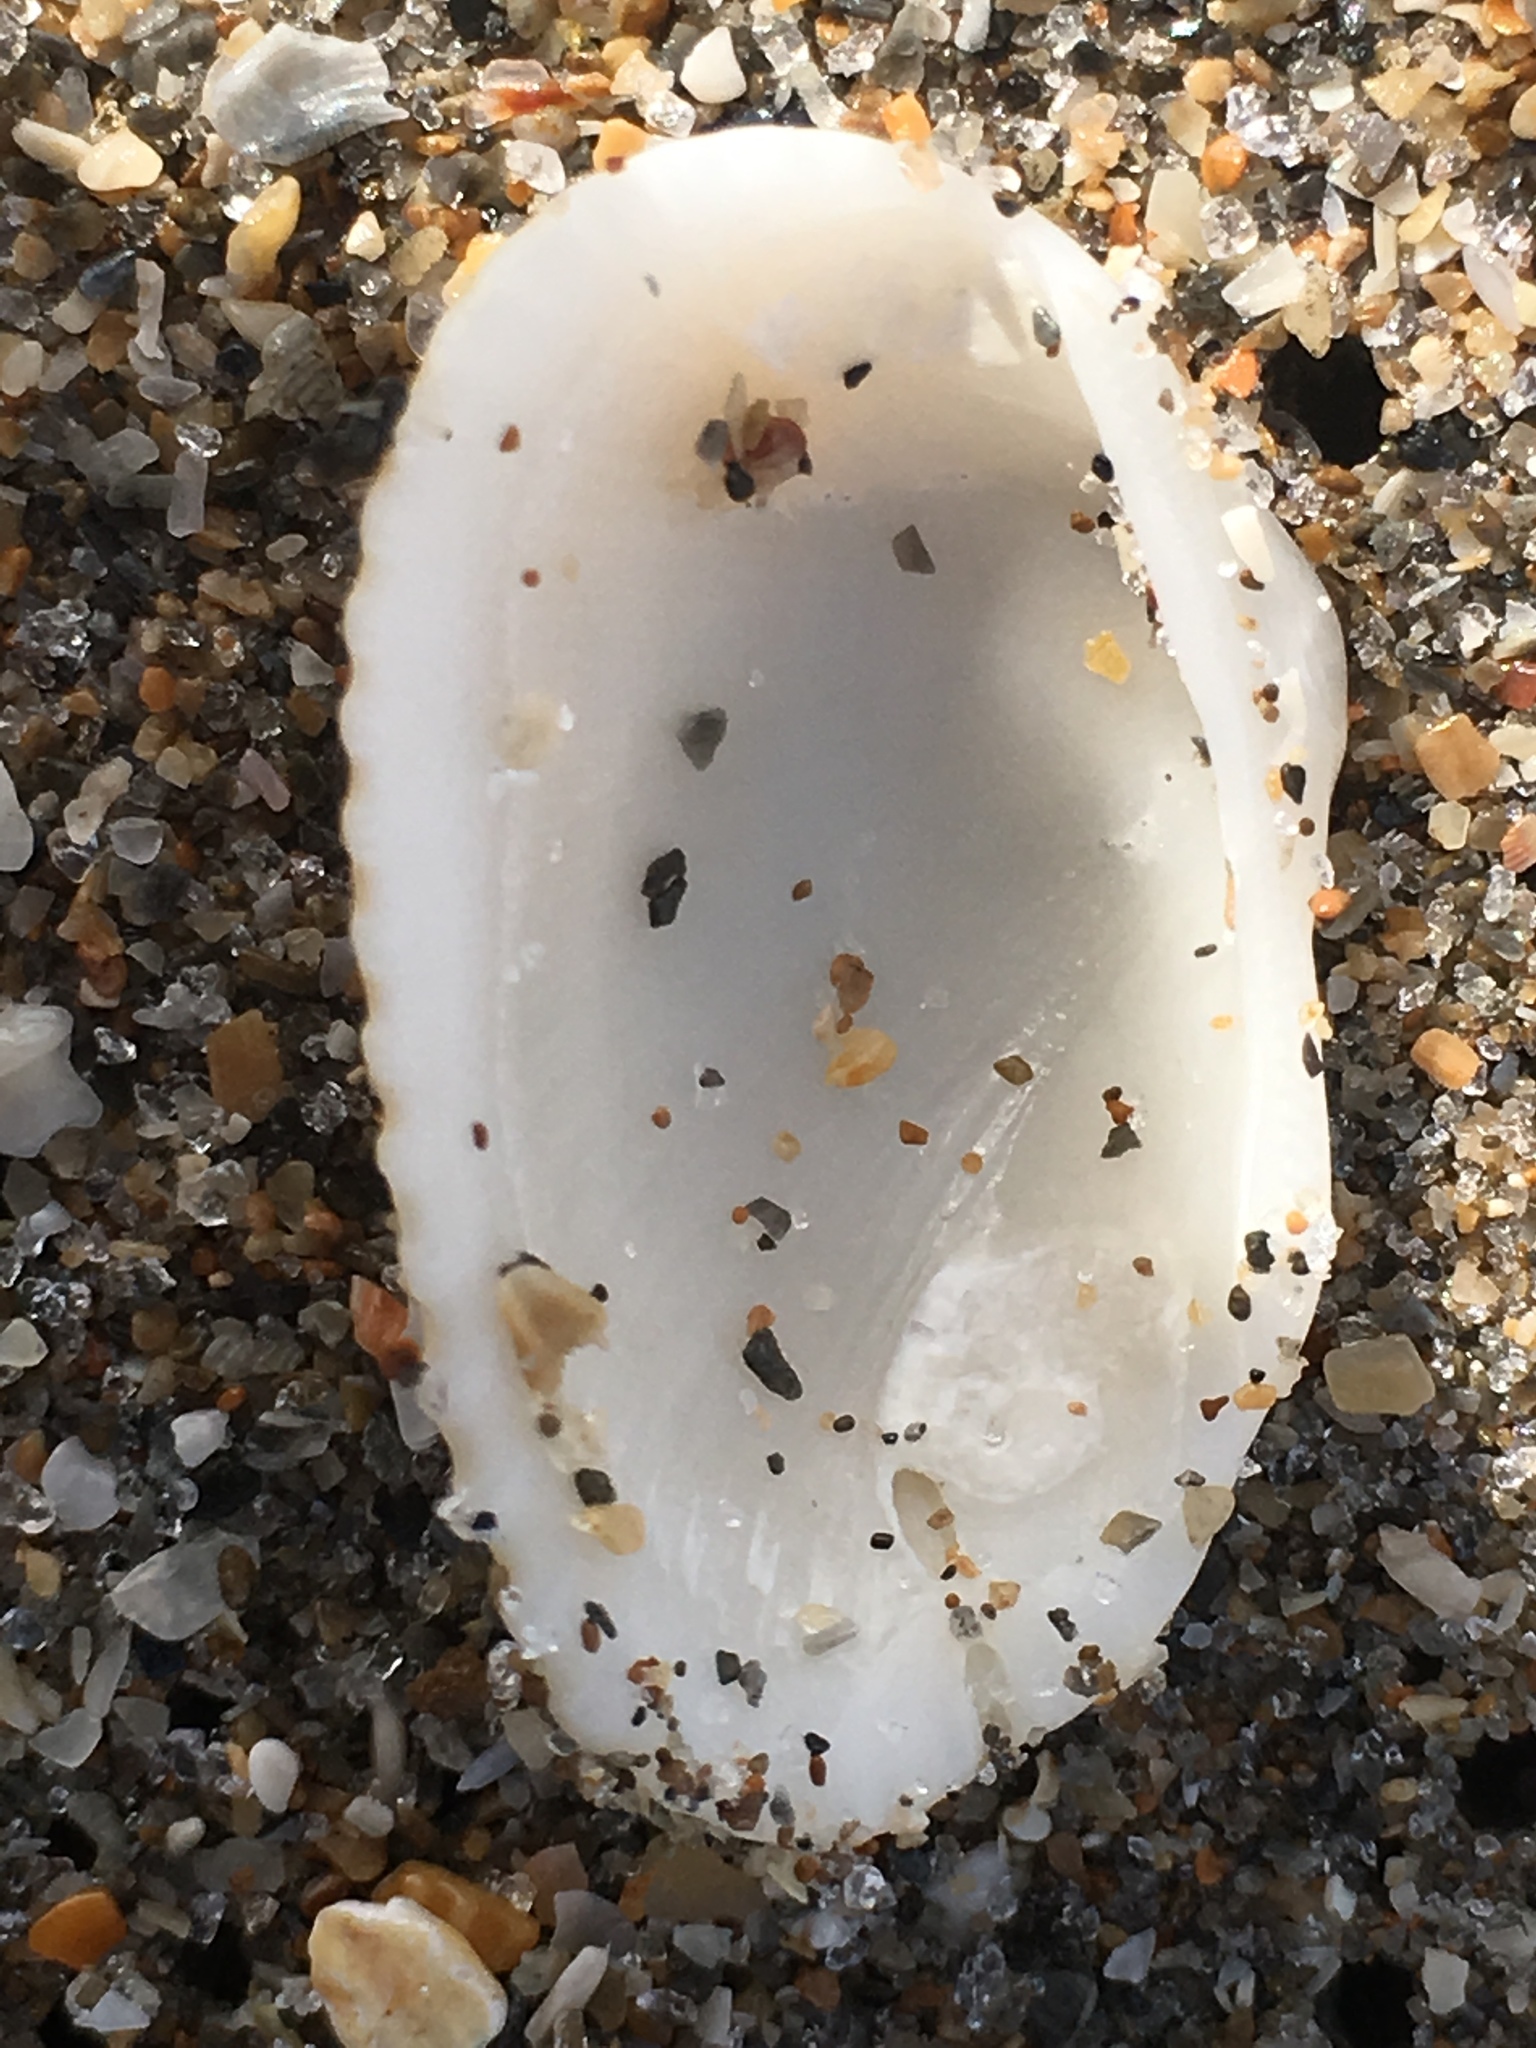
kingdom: Animalia
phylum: Mollusca
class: Bivalvia
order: Arcida
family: Arcidae
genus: Anadara
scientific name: Anadara transversa
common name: Transverse ark
